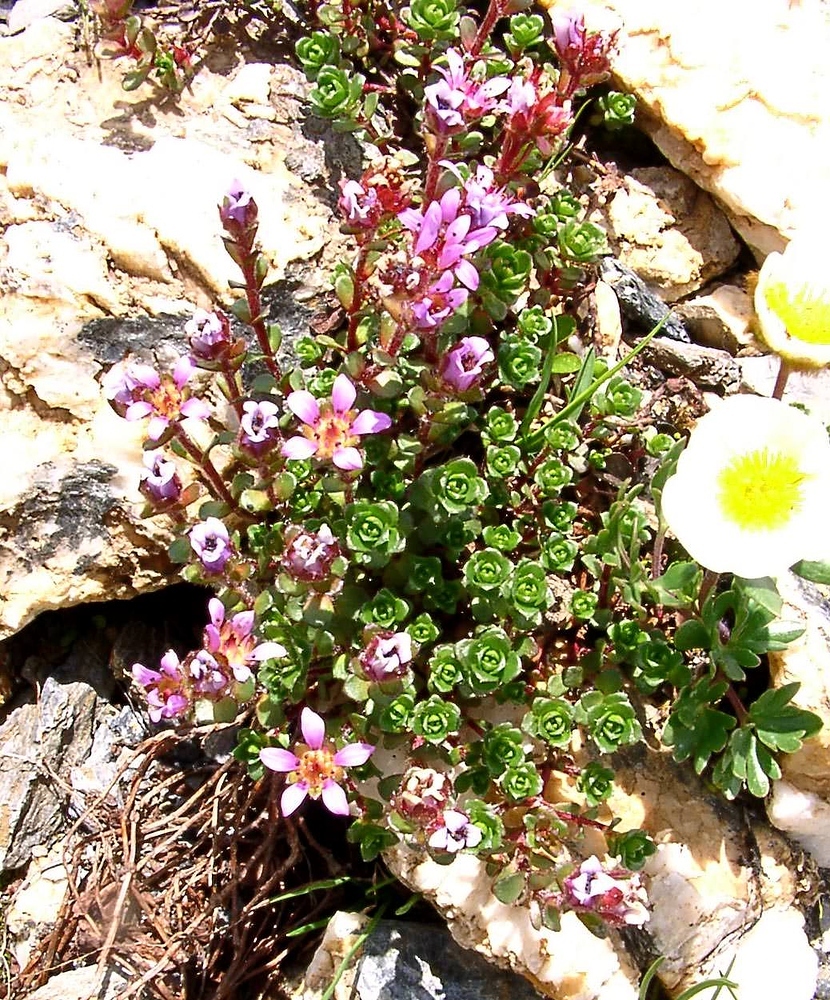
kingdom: Plantae
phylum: Tracheophyta
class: Magnoliopsida
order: Saxifragales
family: Saxifragaceae
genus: Saxifraga
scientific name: Saxifraga biflora
